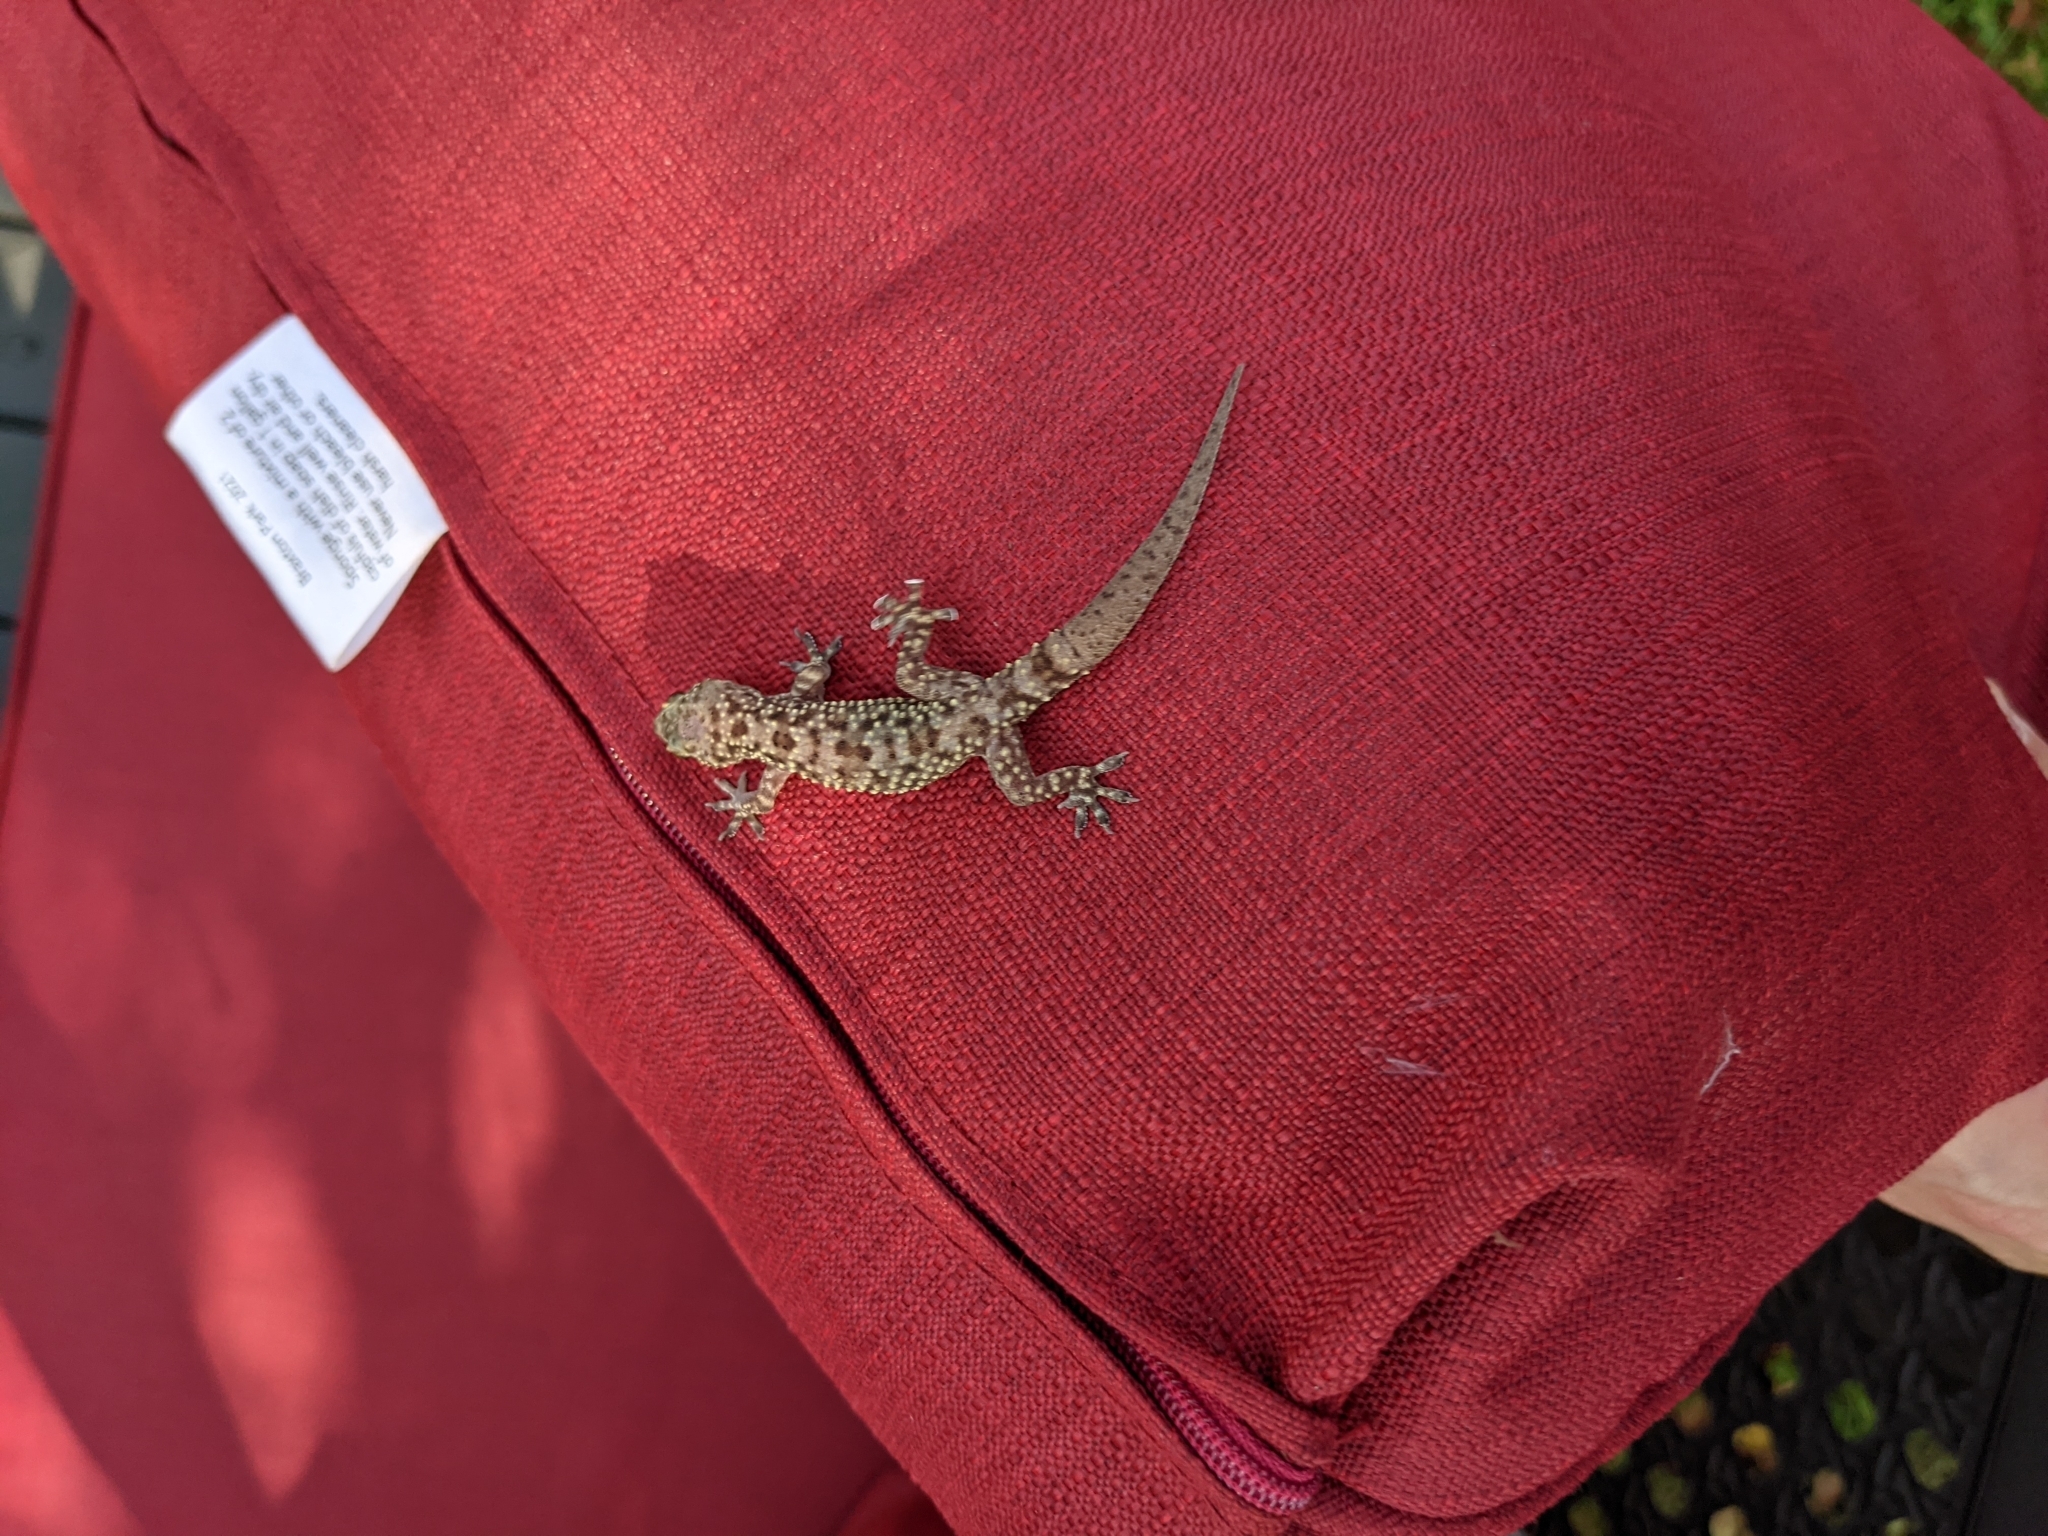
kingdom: Animalia
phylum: Chordata
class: Squamata
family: Gekkonidae
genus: Hemidactylus
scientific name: Hemidactylus turcicus
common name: Turkish gecko
